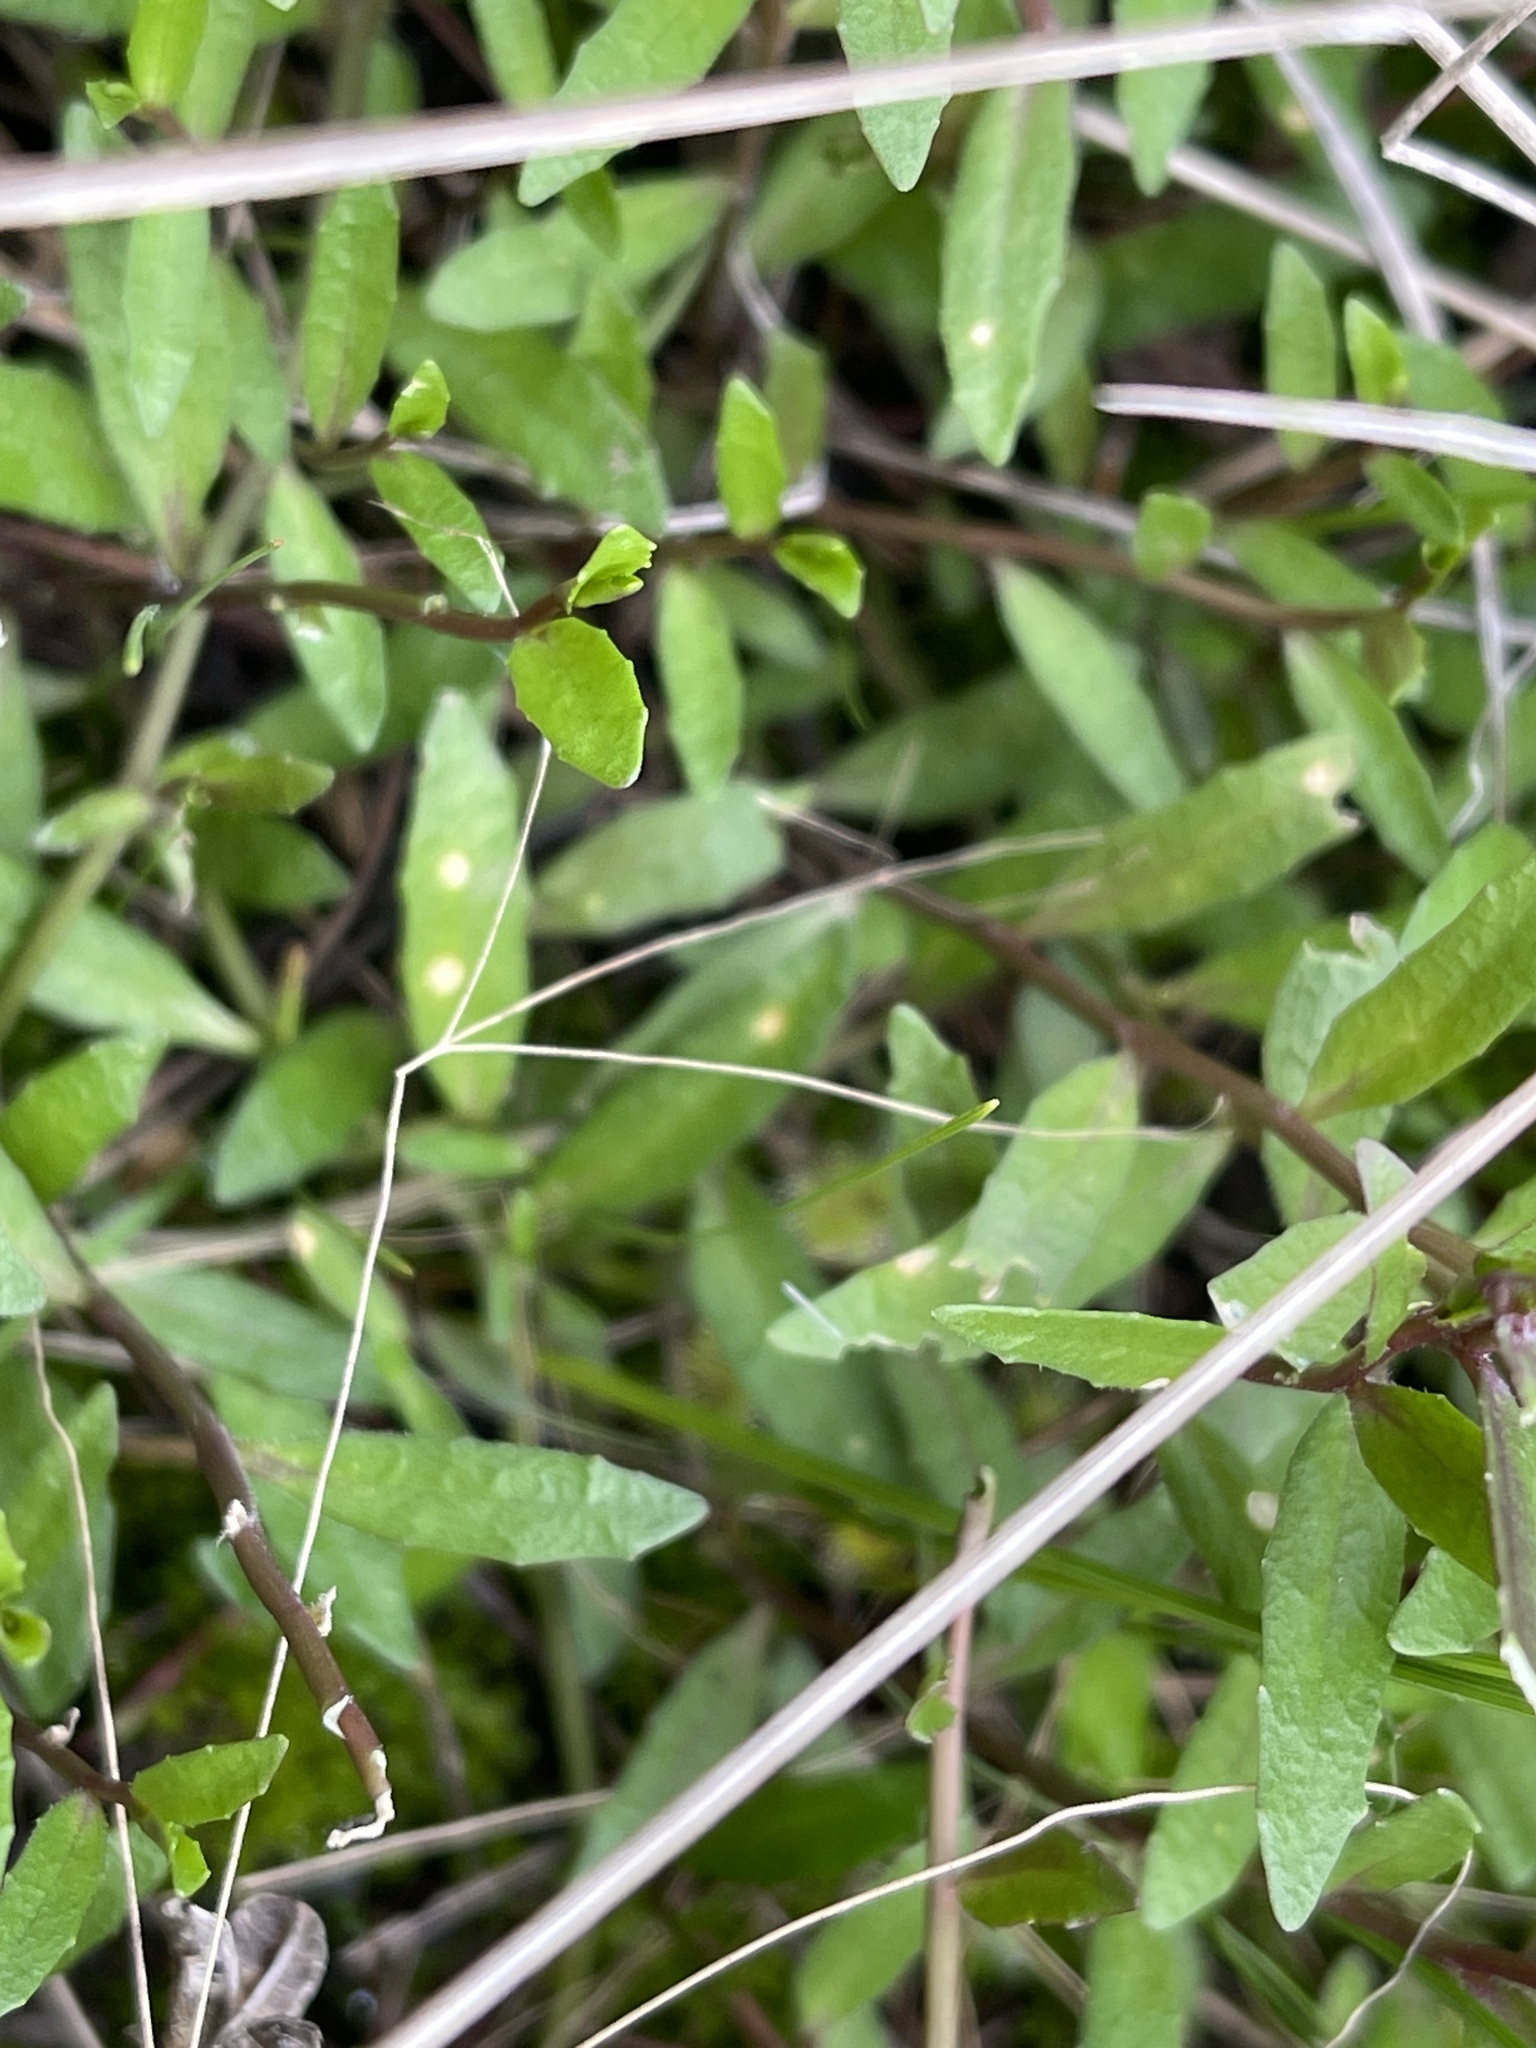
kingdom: Plantae
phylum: Tracheophyta
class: Magnoliopsida
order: Asterales
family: Campanulaceae
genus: Lobelia
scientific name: Lobelia pratioides
